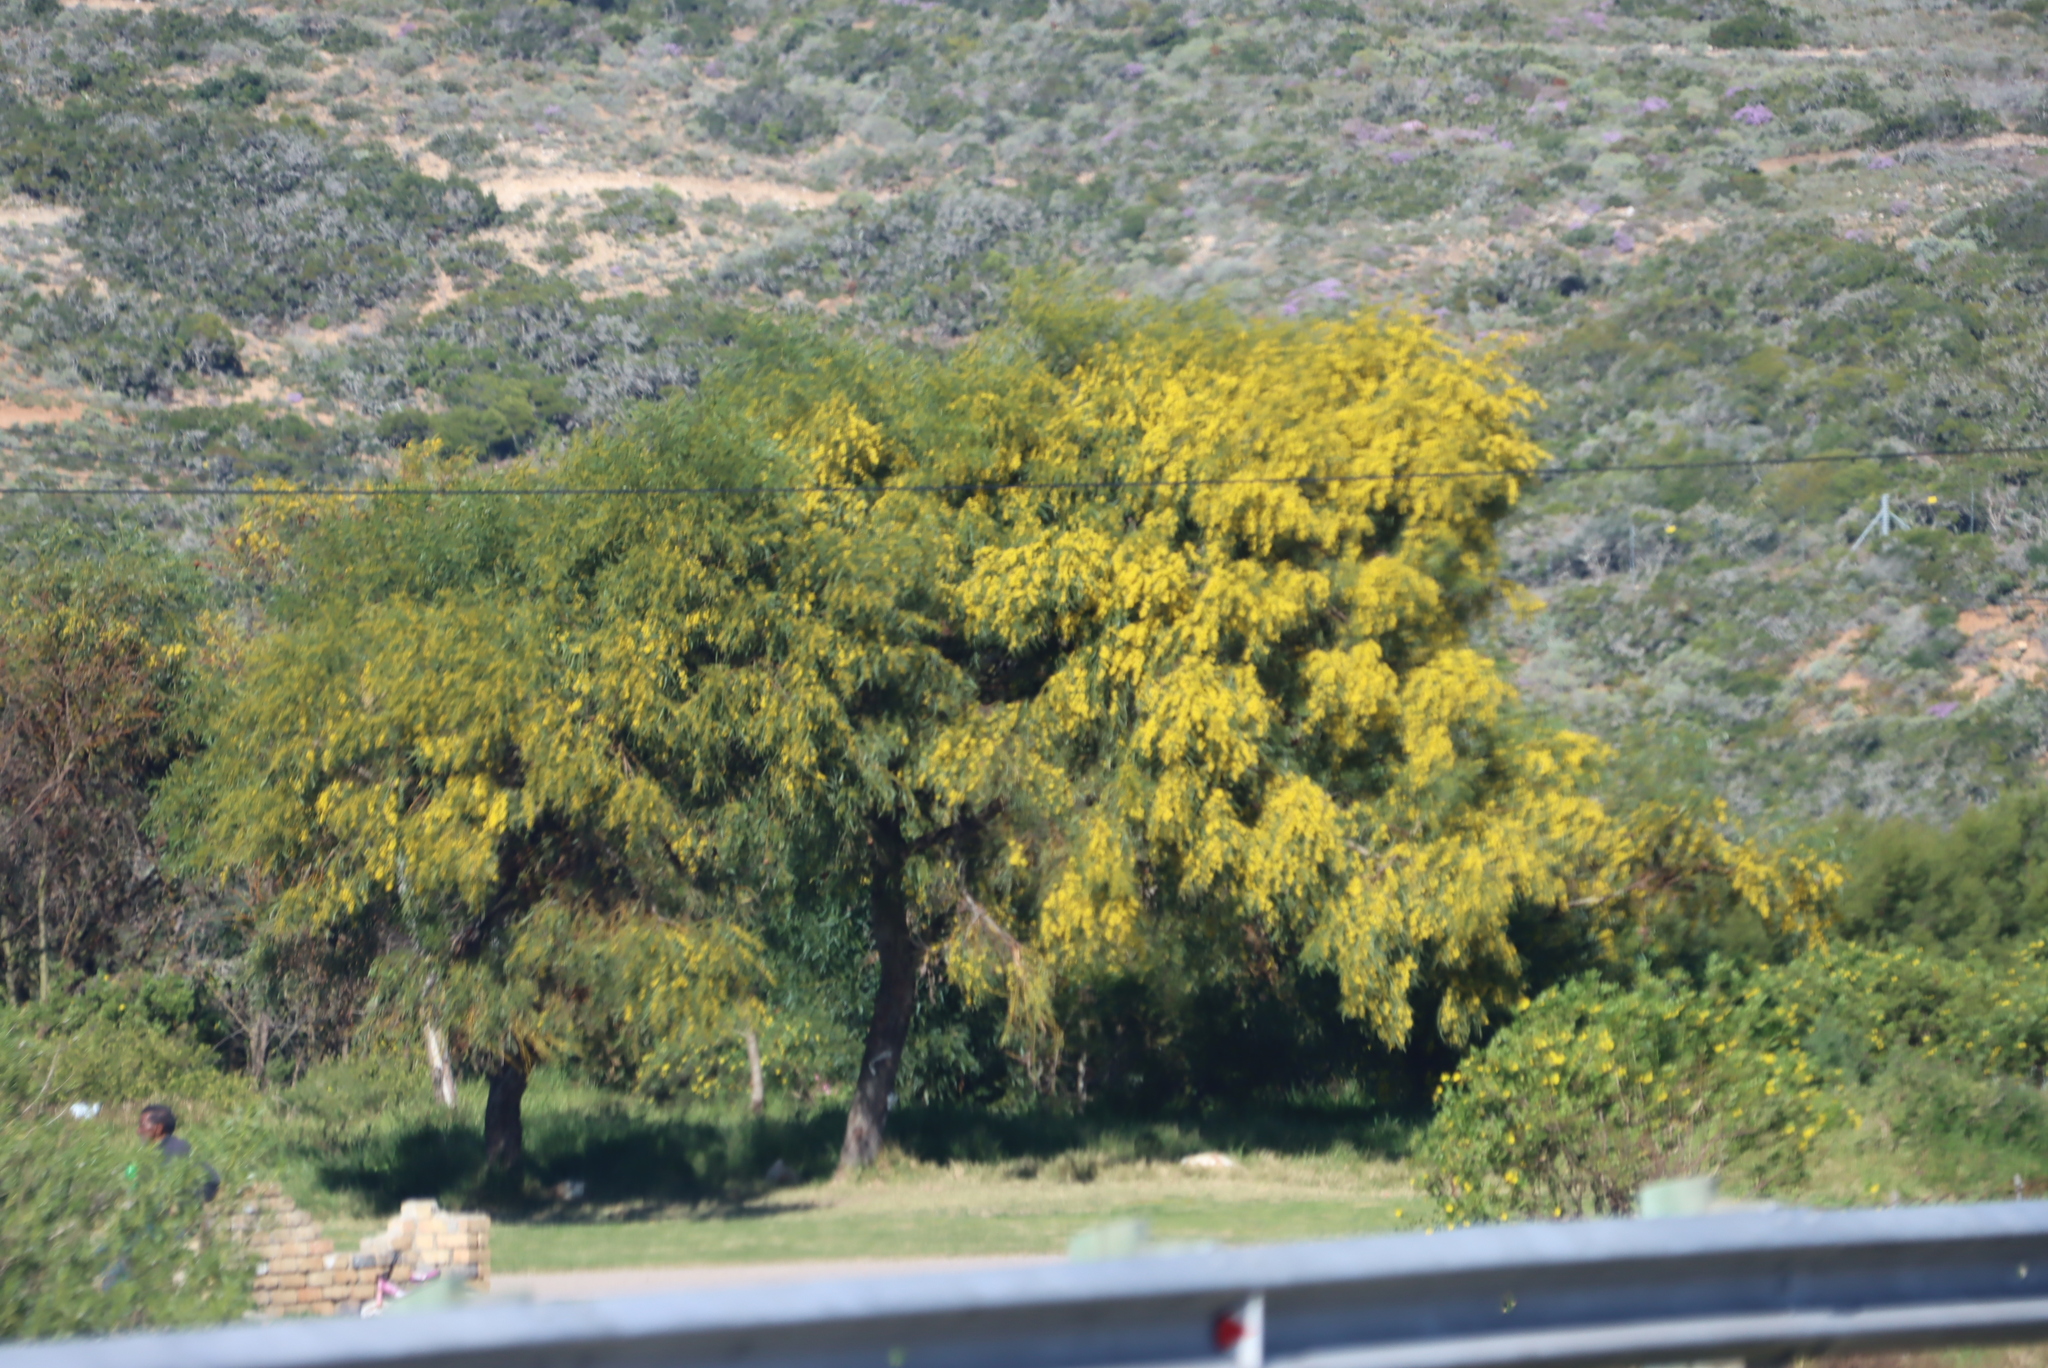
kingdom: Plantae
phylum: Tracheophyta
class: Magnoliopsida
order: Fabales
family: Fabaceae
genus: Acacia
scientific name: Acacia saligna
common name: Orange wattle
